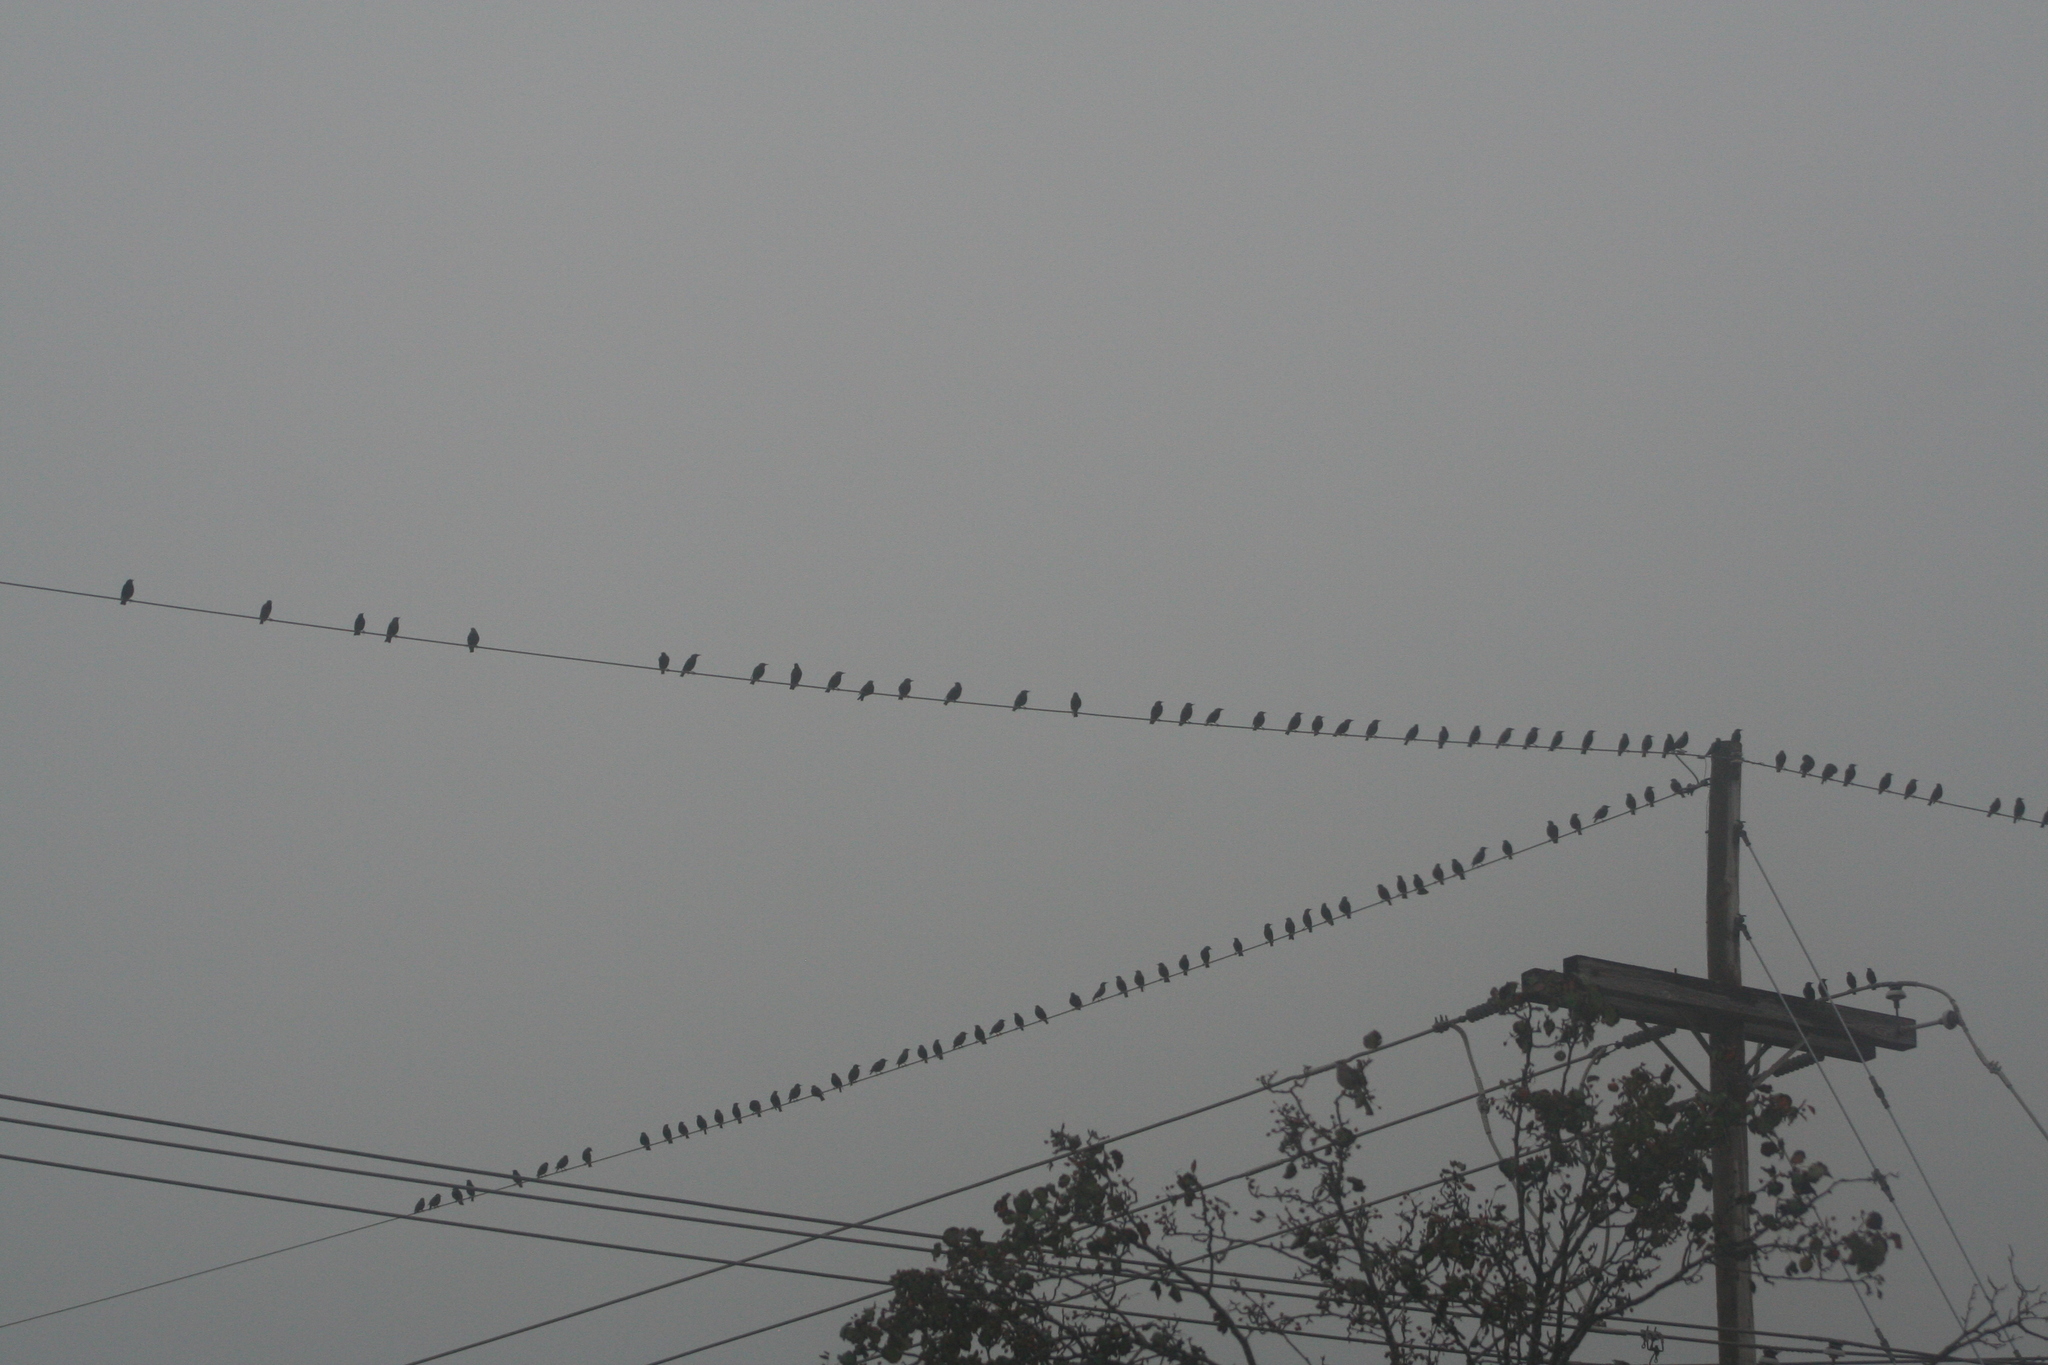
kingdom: Animalia
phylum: Chordata
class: Aves
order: Passeriformes
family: Sturnidae
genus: Sturnus
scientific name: Sturnus vulgaris
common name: Common starling
